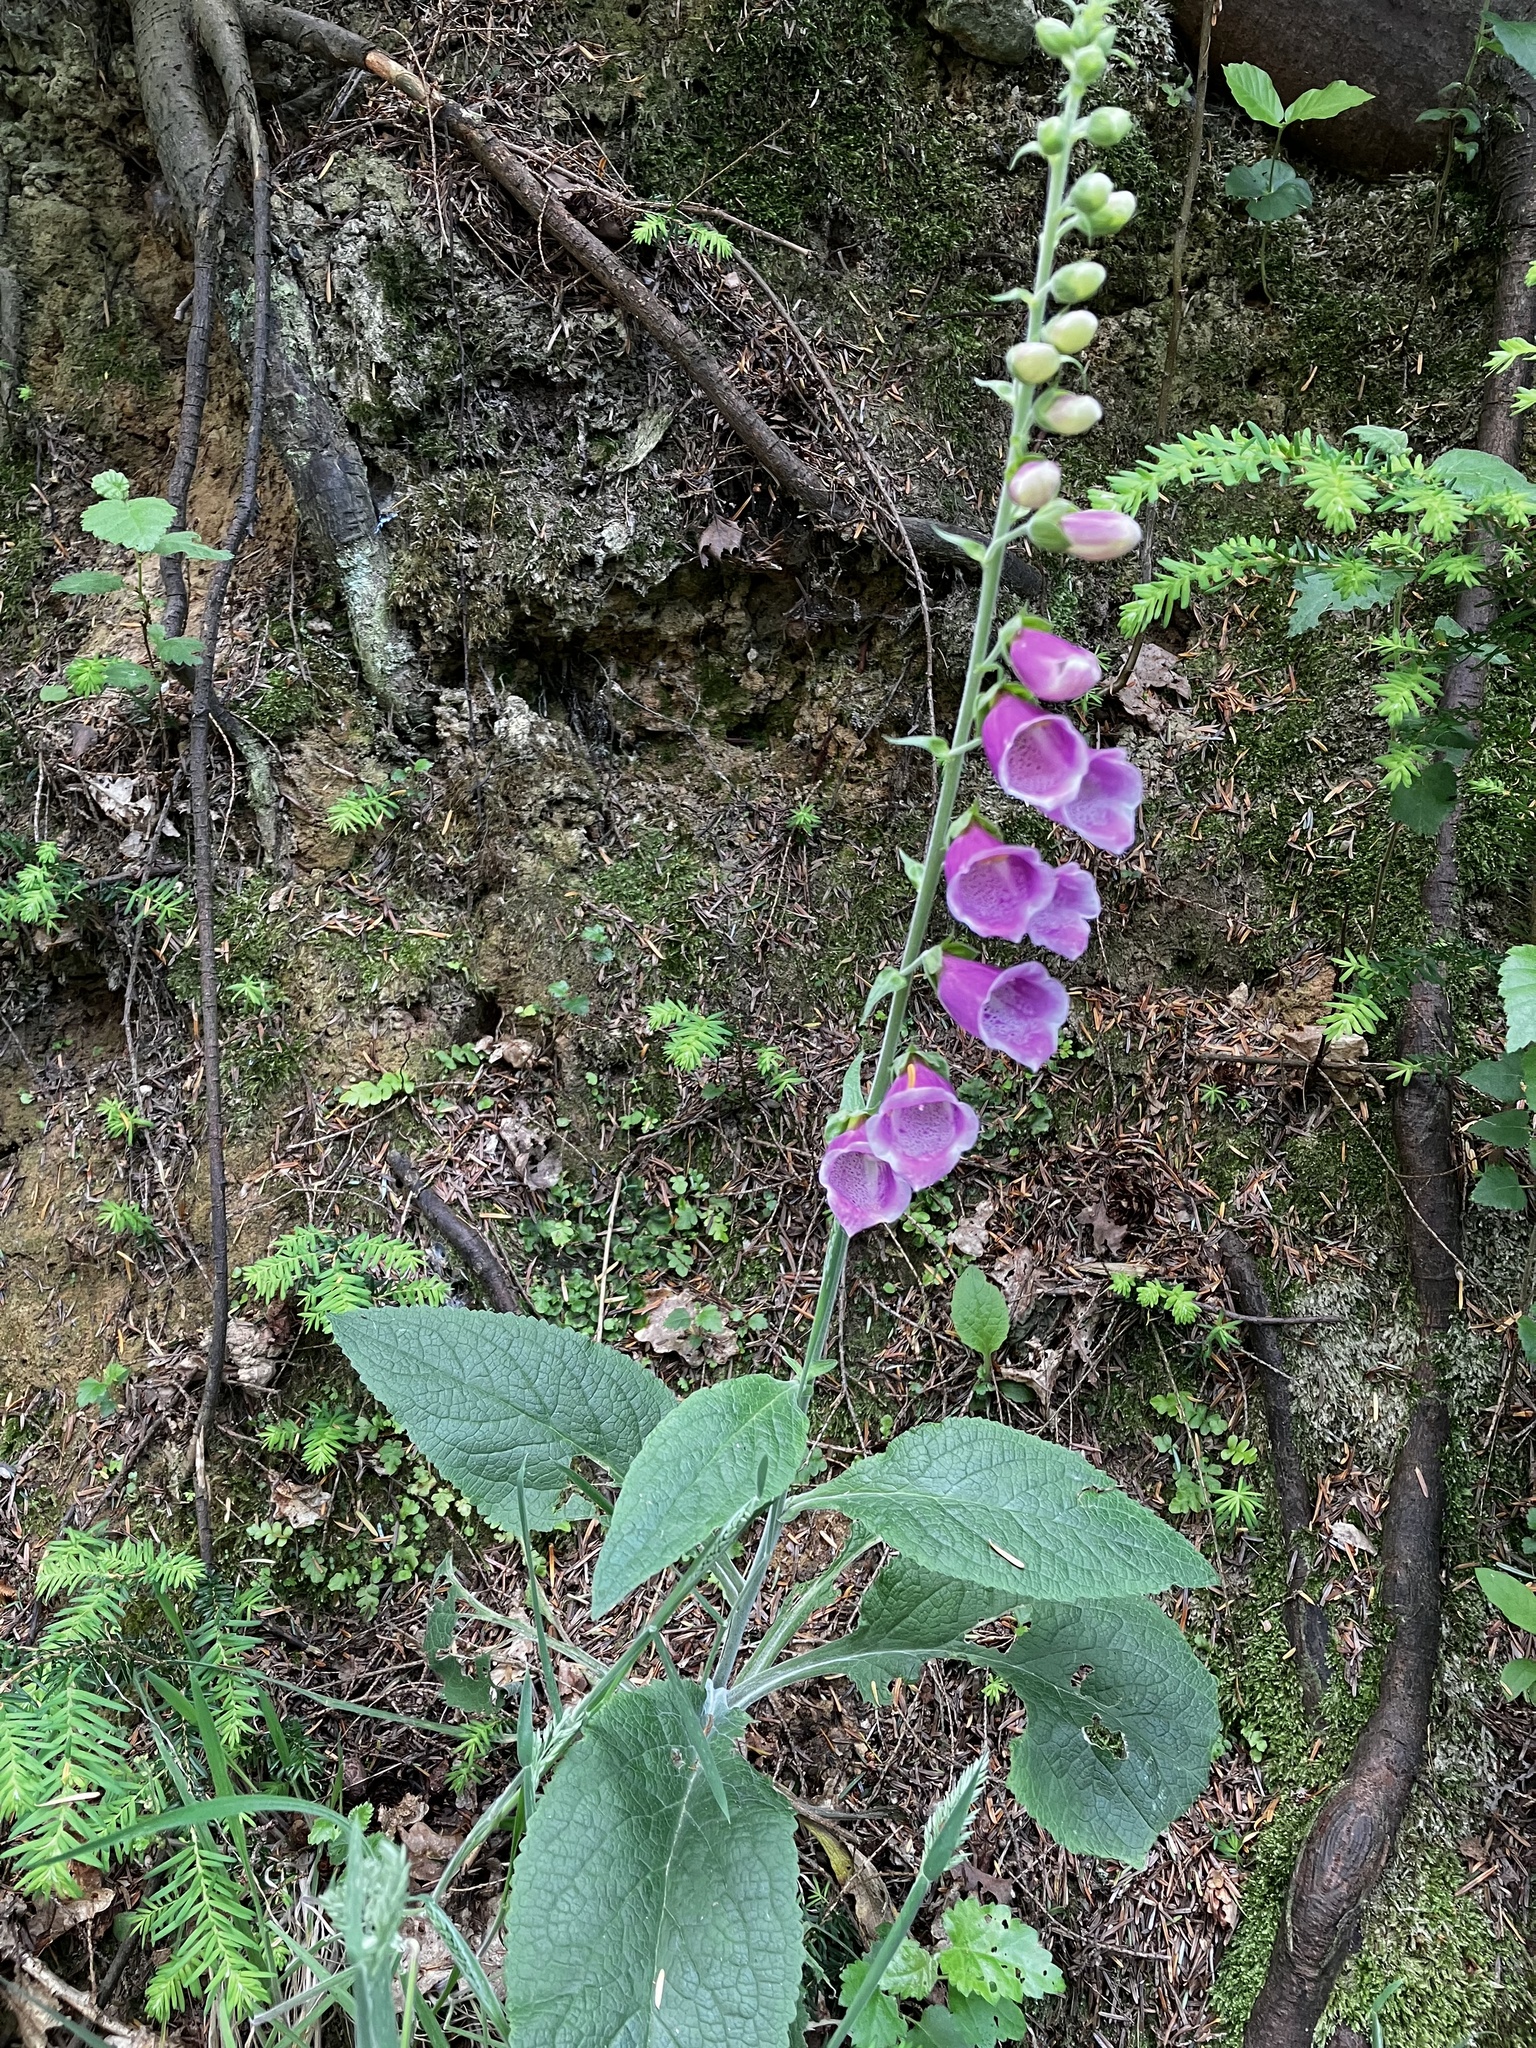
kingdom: Plantae
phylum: Tracheophyta
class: Magnoliopsida
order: Lamiales
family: Plantaginaceae
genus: Digitalis
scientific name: Digitalis purpurea
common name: Foxglove
